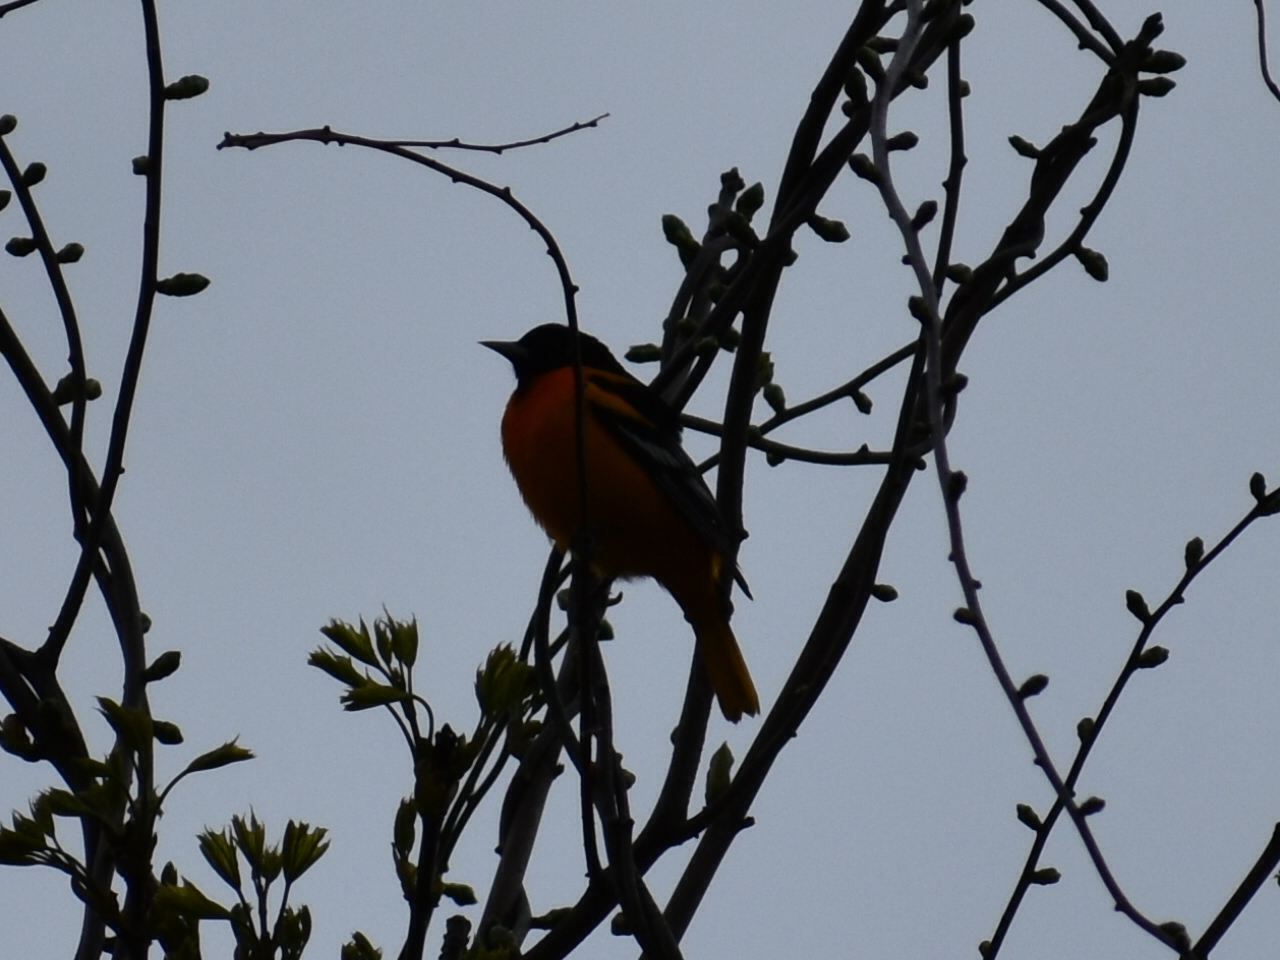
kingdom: Animalia
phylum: Chordata
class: Aves
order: Passeriformes
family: Icteridae
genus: Icterus
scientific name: Icterus galbula
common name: Baltimore oriole
